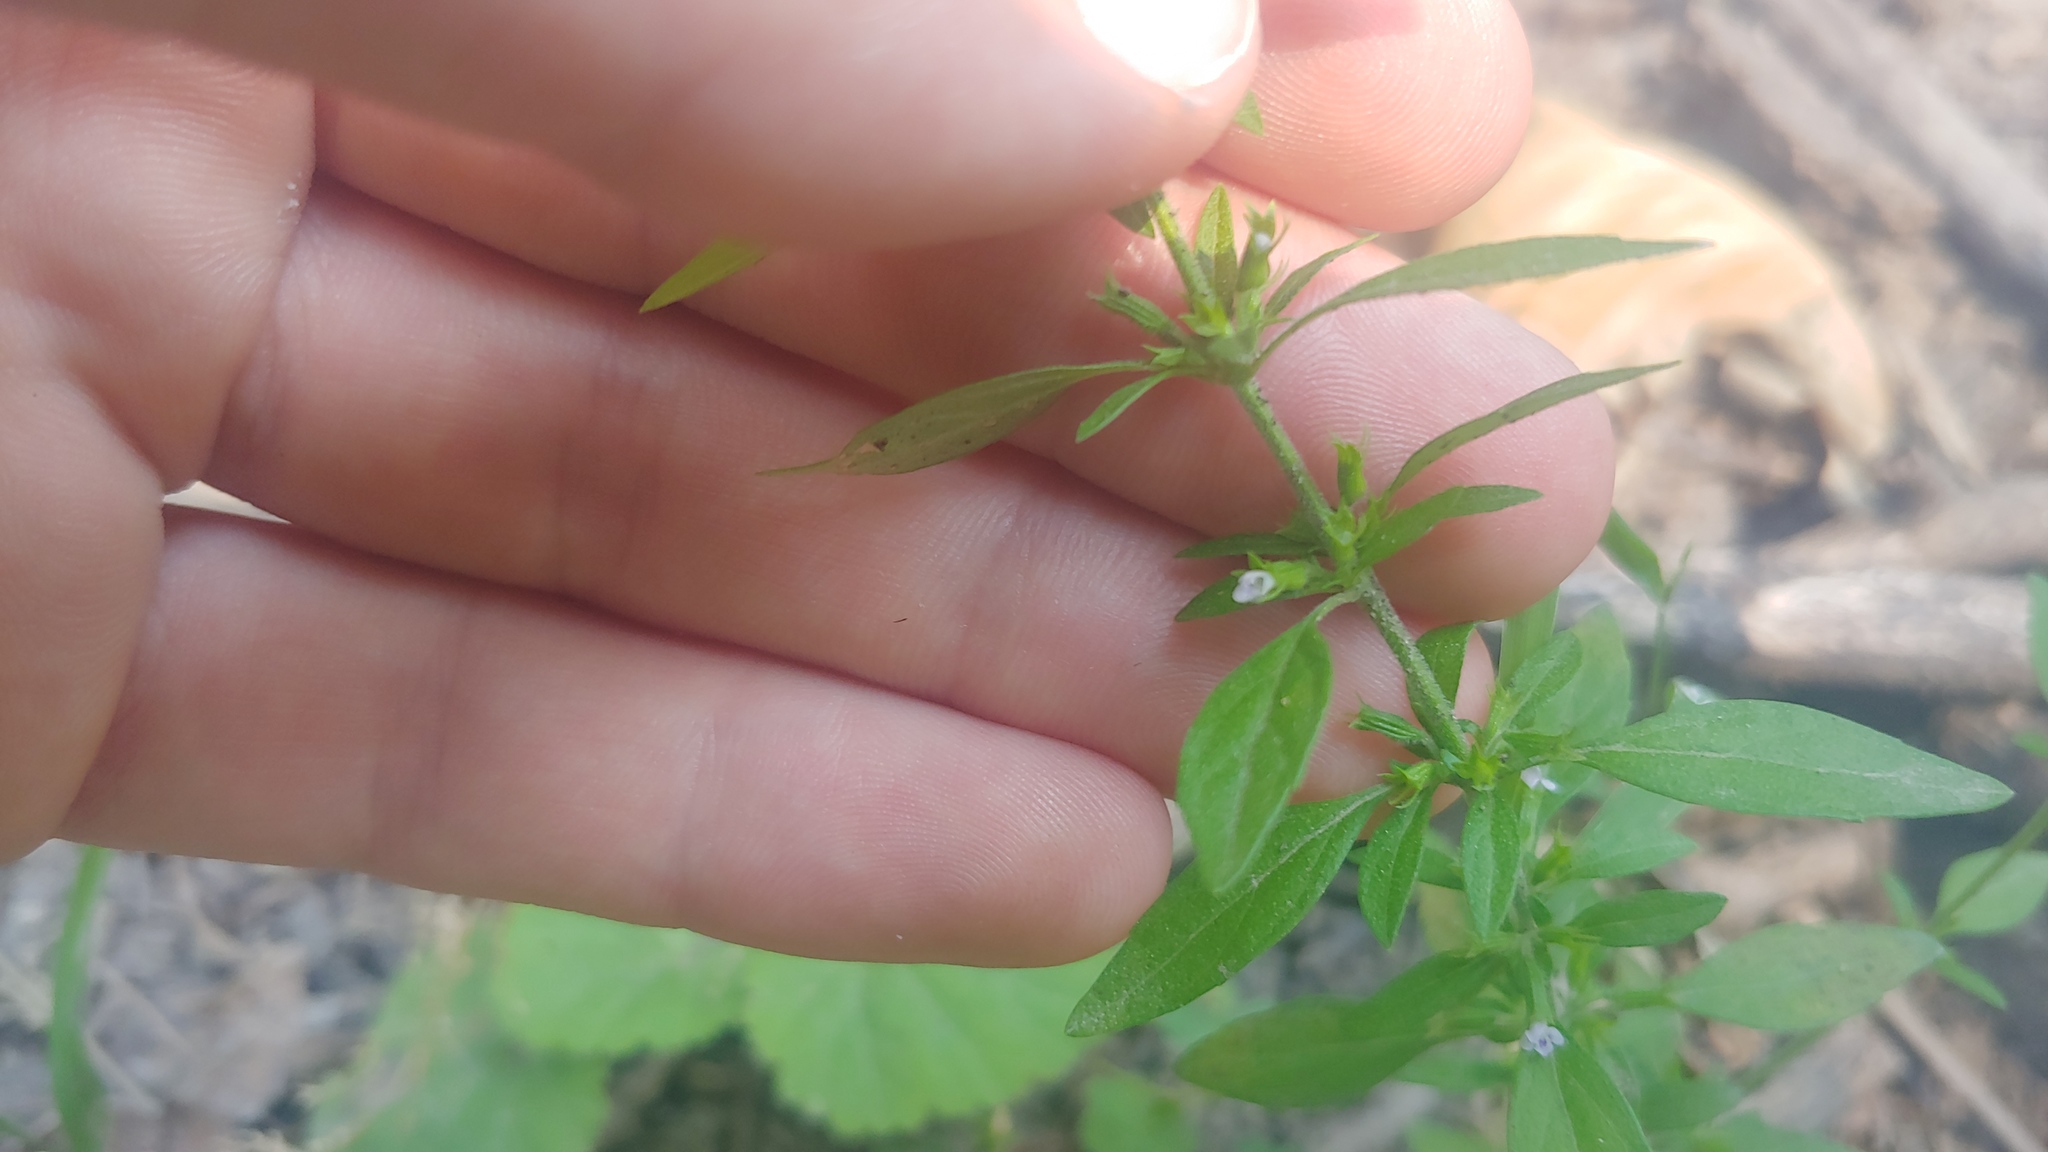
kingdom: Plantae
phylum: Tracheophyta
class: Magnoliopsida
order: Lamiales
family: Lamiaceae
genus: Hedeoma
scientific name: Hedeoma pulegioides
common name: American false pennyroyal
